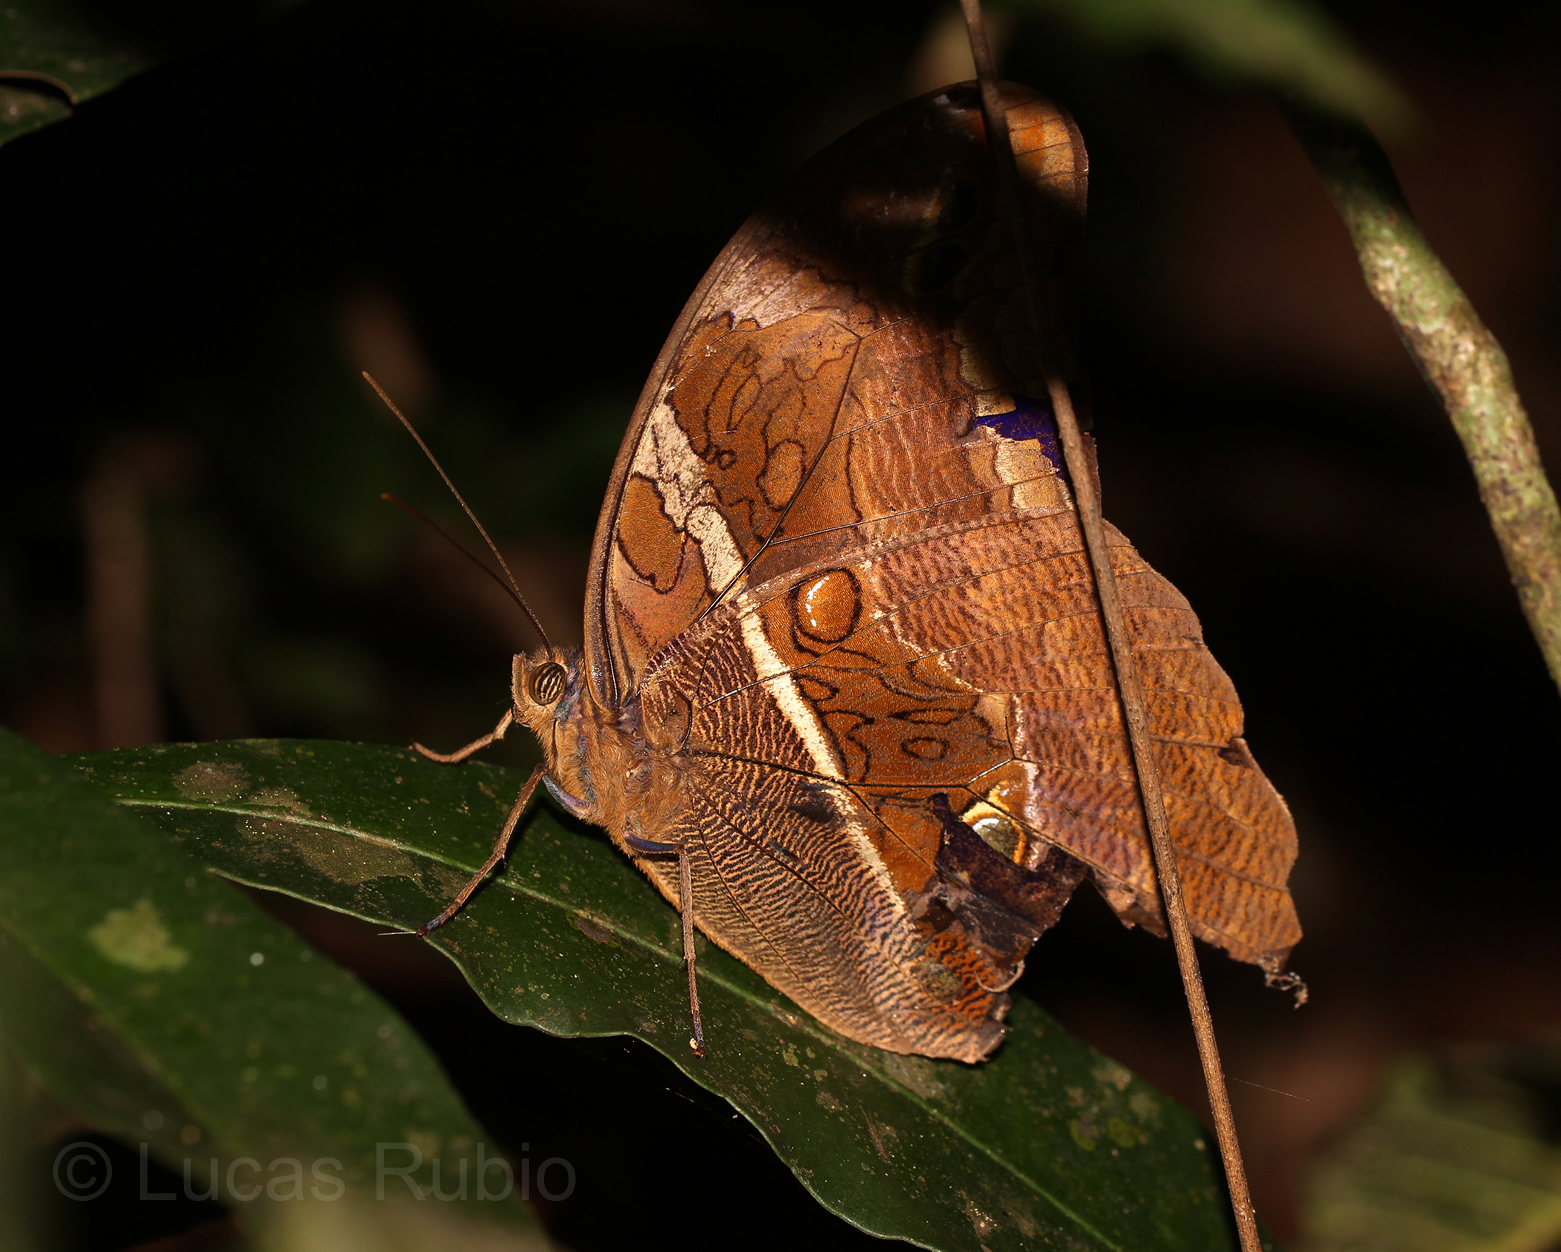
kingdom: Animalia
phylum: Arthropoda
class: Insecta
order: Lepidoptera
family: Nymphalidae
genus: Eryphanis
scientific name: Eryphanis reevesii
